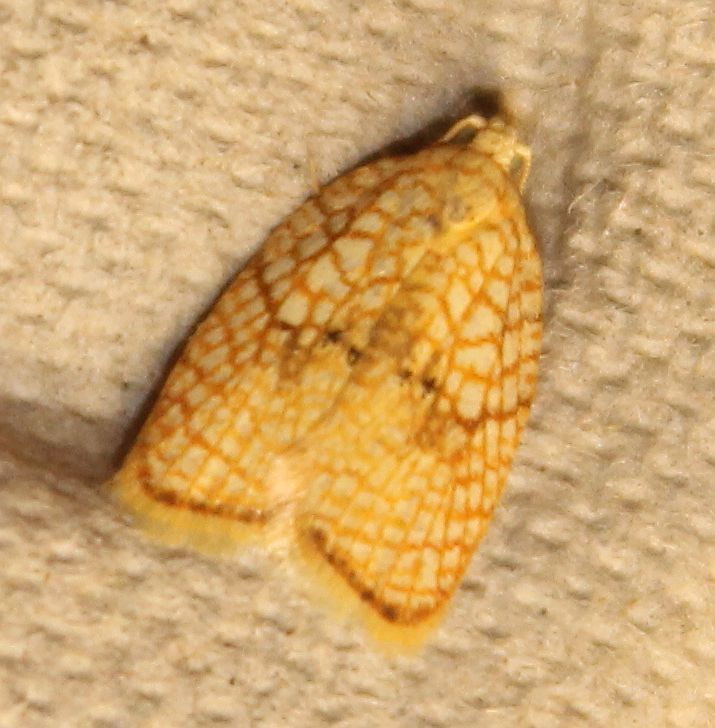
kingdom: Animalia
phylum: Arthropoda
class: Insecta
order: Lepidoptera
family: Tortricidae
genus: Acleris
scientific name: Acleris forsskaleana
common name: Maple button
